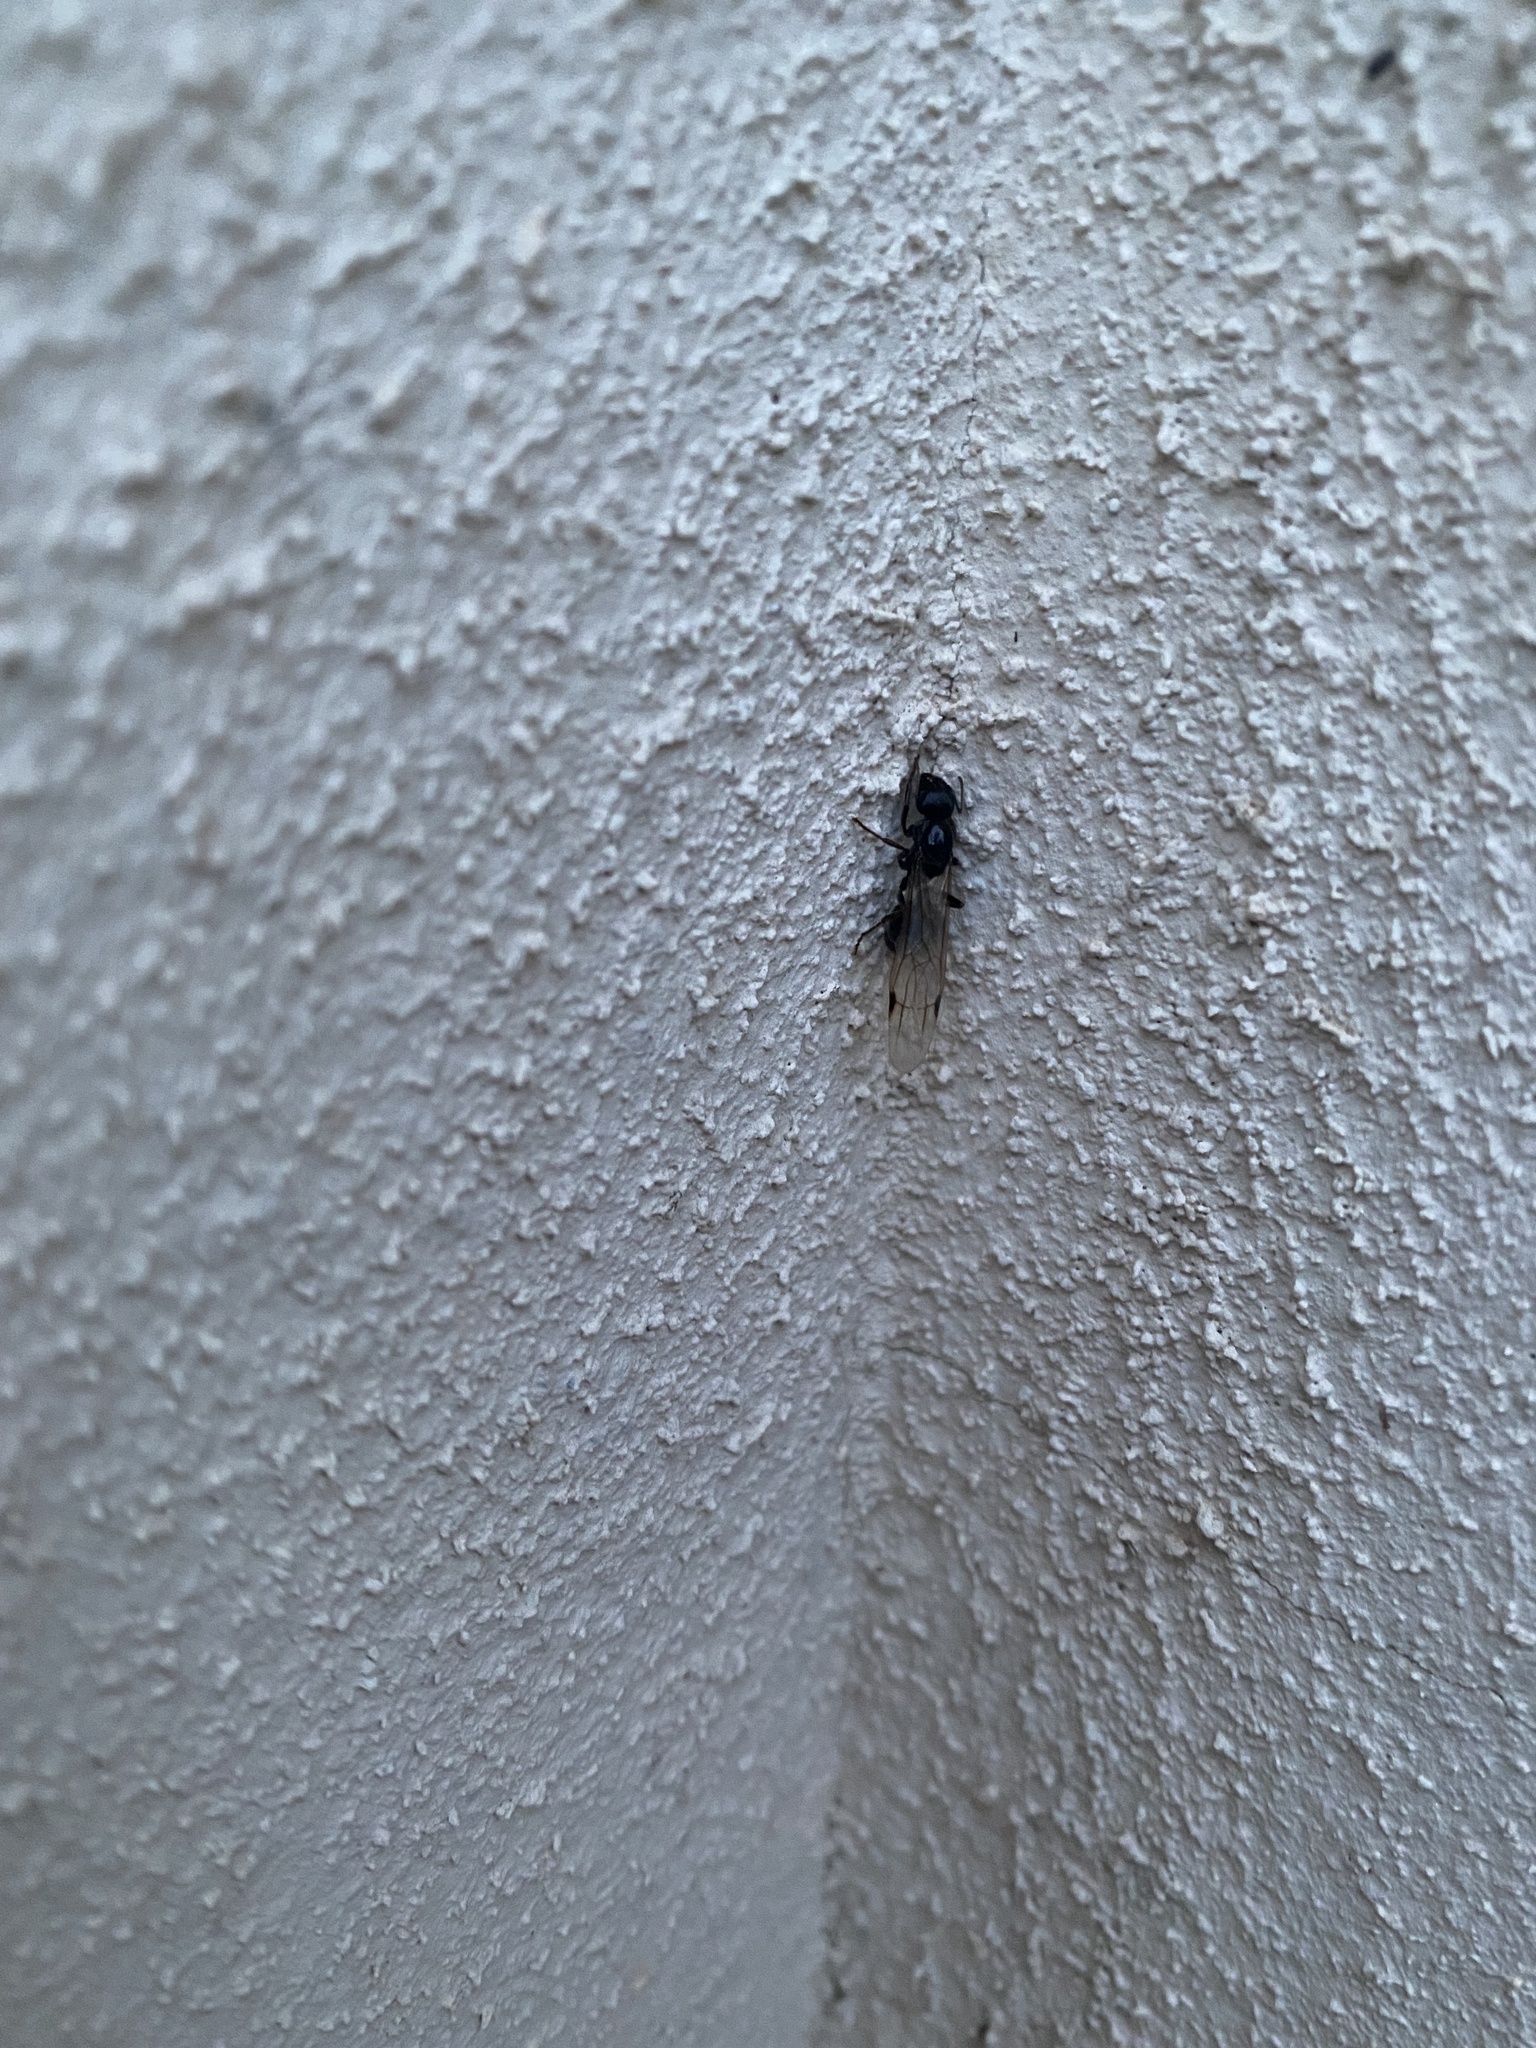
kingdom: Animalia
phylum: Arthropoda
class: Insecta
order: Hymenoptera
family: Formicidae
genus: Messor
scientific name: Messor
